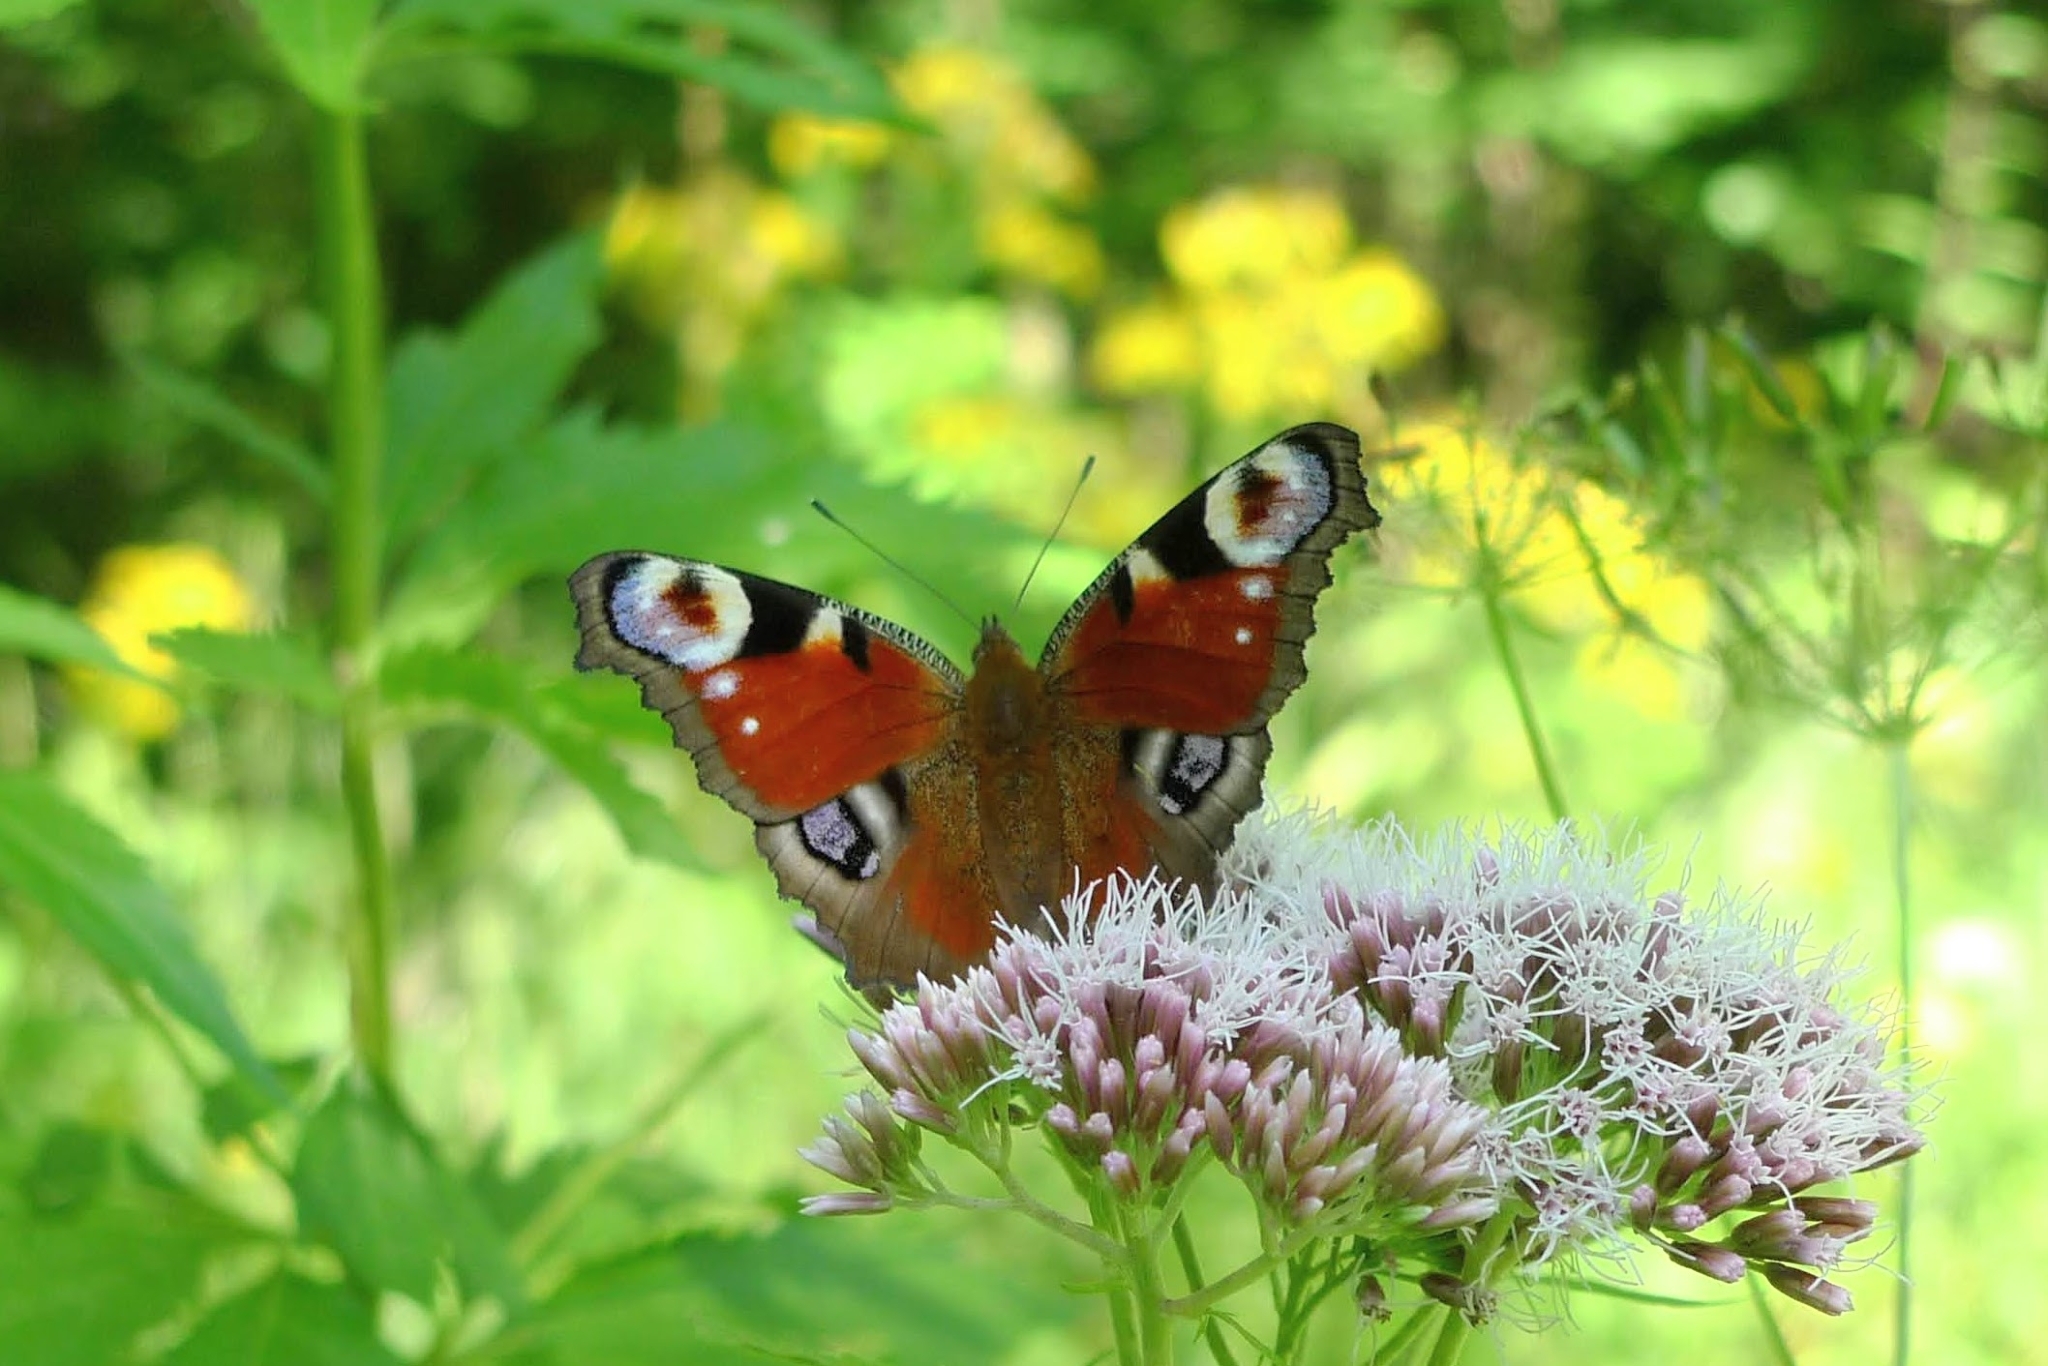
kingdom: Animalia
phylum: Arthropoda
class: Insecta
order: Lepidoptera
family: Nymphalidae
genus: Aglais
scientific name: Aglais io
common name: Peacock
